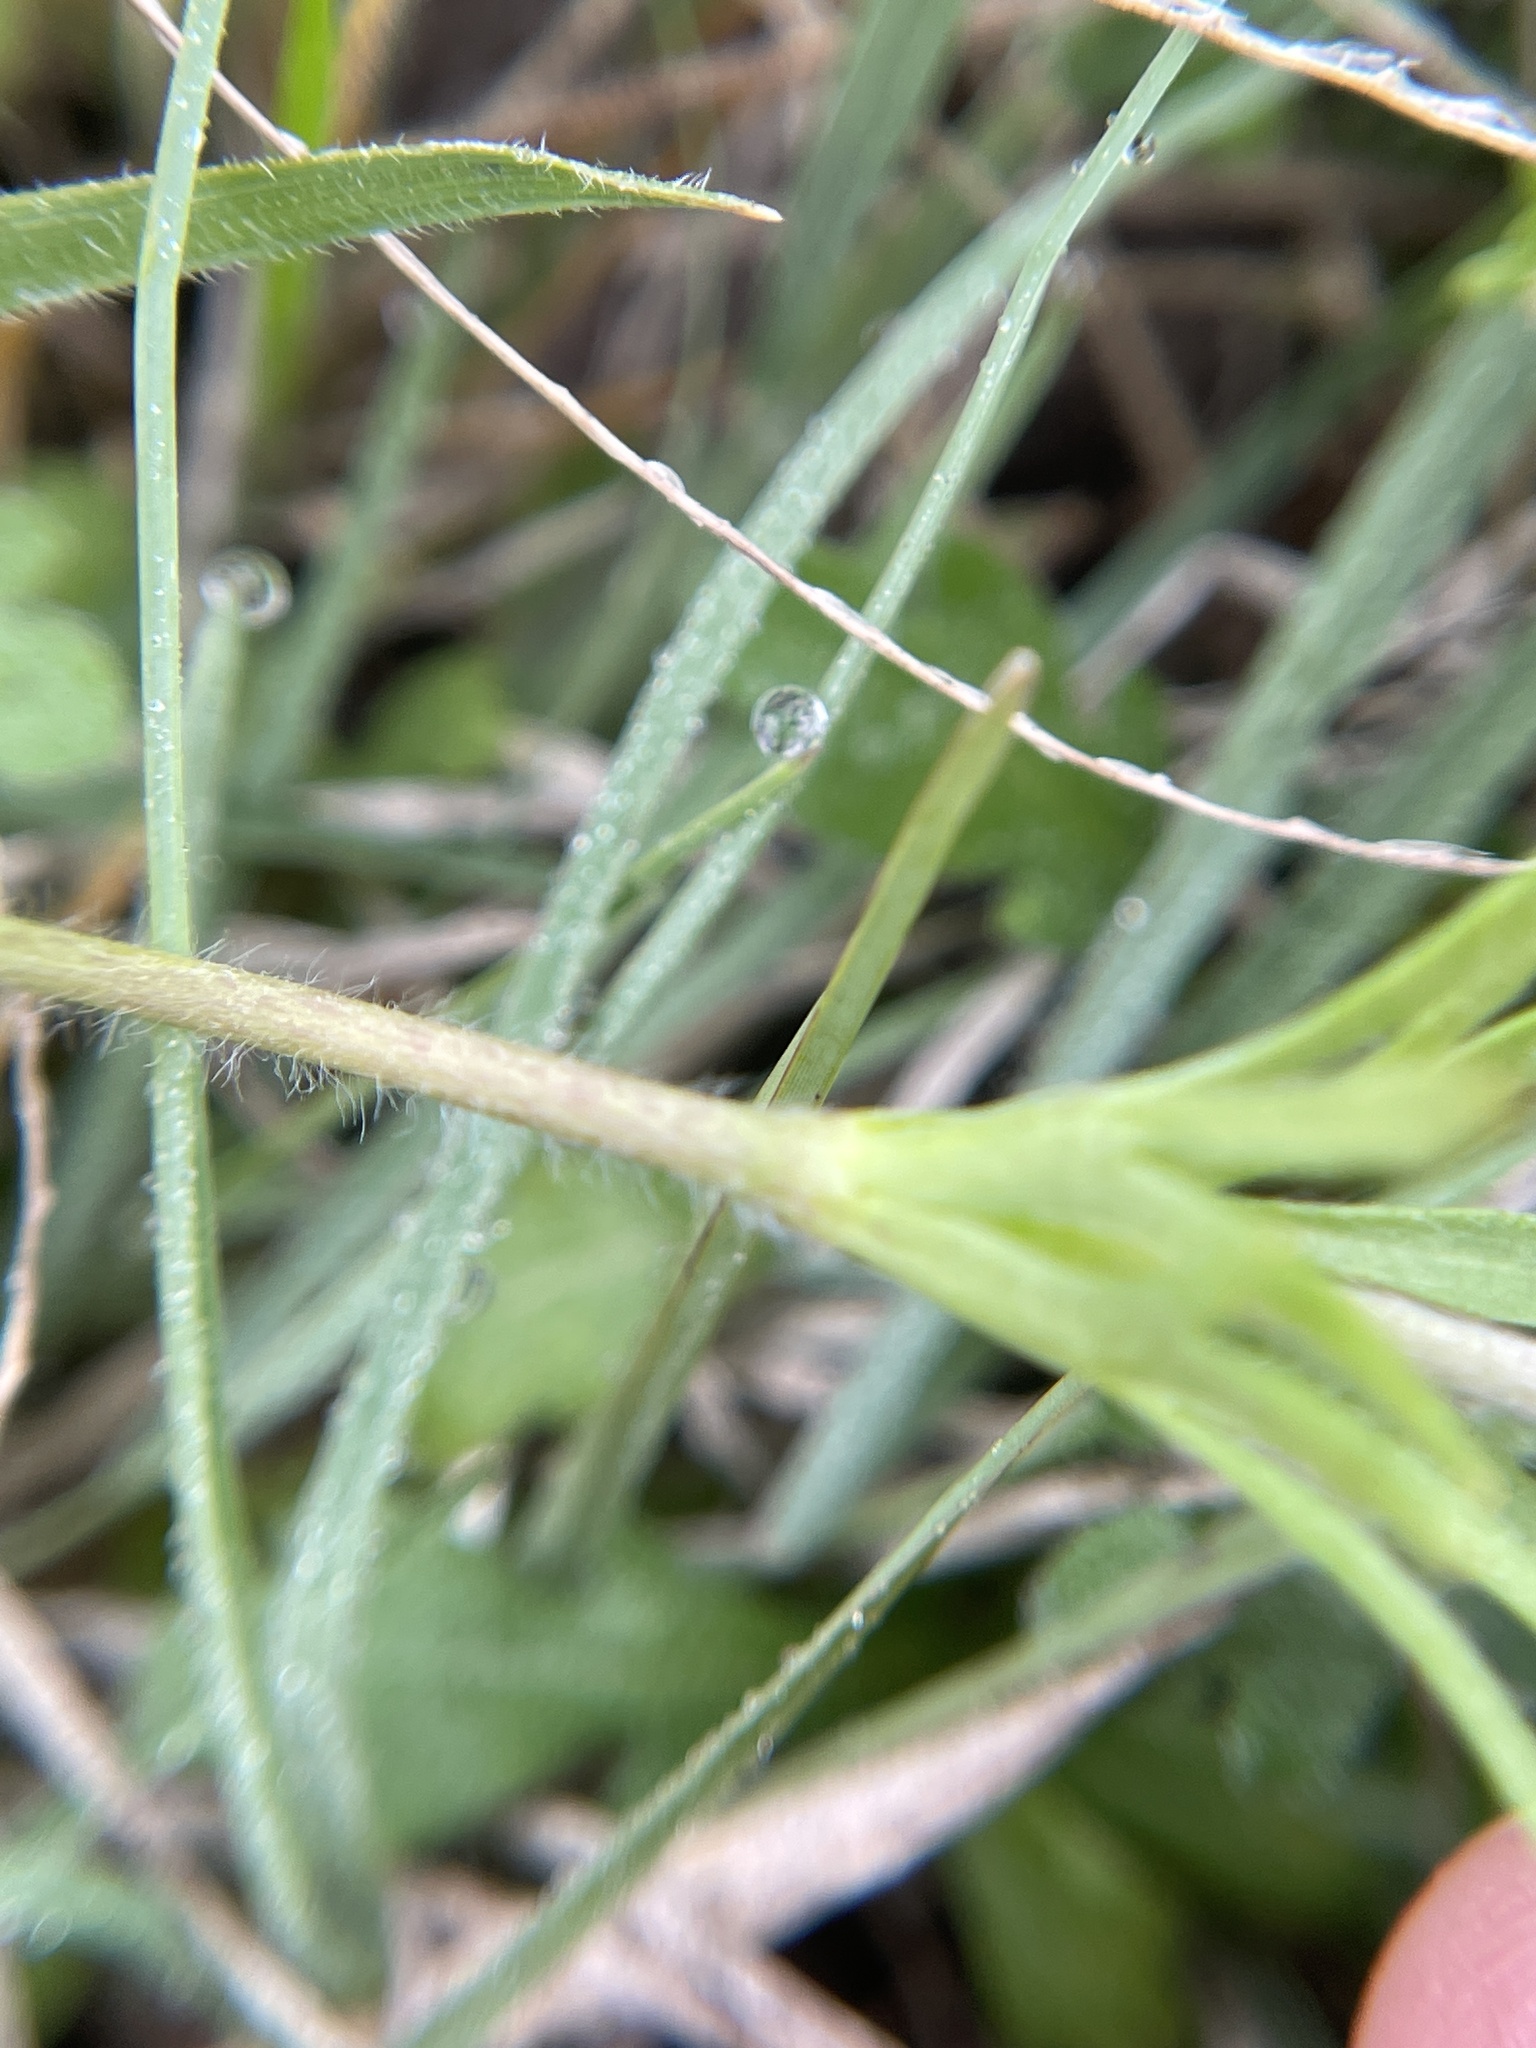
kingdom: Plantae
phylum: Tracheophyta
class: Magnoliopsida
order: Ranunculales
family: Ranunculaceae
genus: Anemone
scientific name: Anemone berlandieri
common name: Ten-petal anemone
